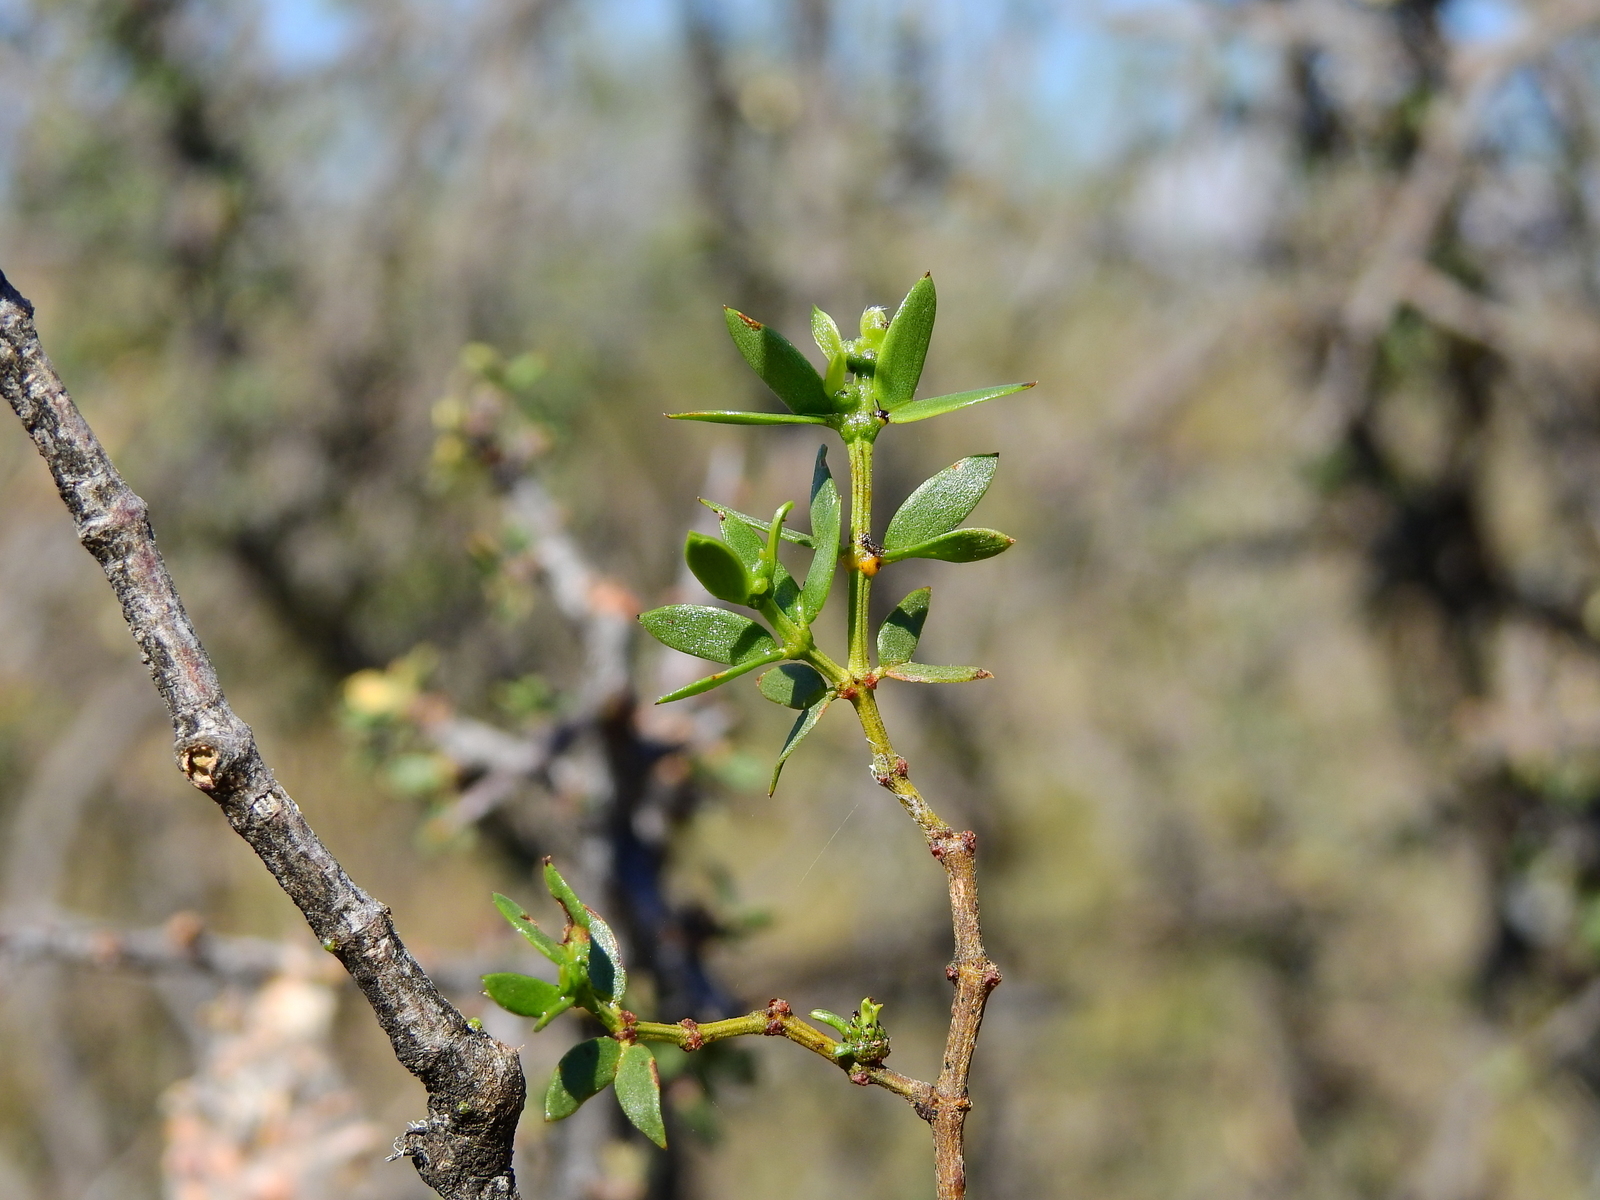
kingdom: Plantae
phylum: Tracheophyta
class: Magnoliopsida
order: Zygophyllales
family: Zygophyllaceae
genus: Larrea
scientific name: Larrea divaricata
